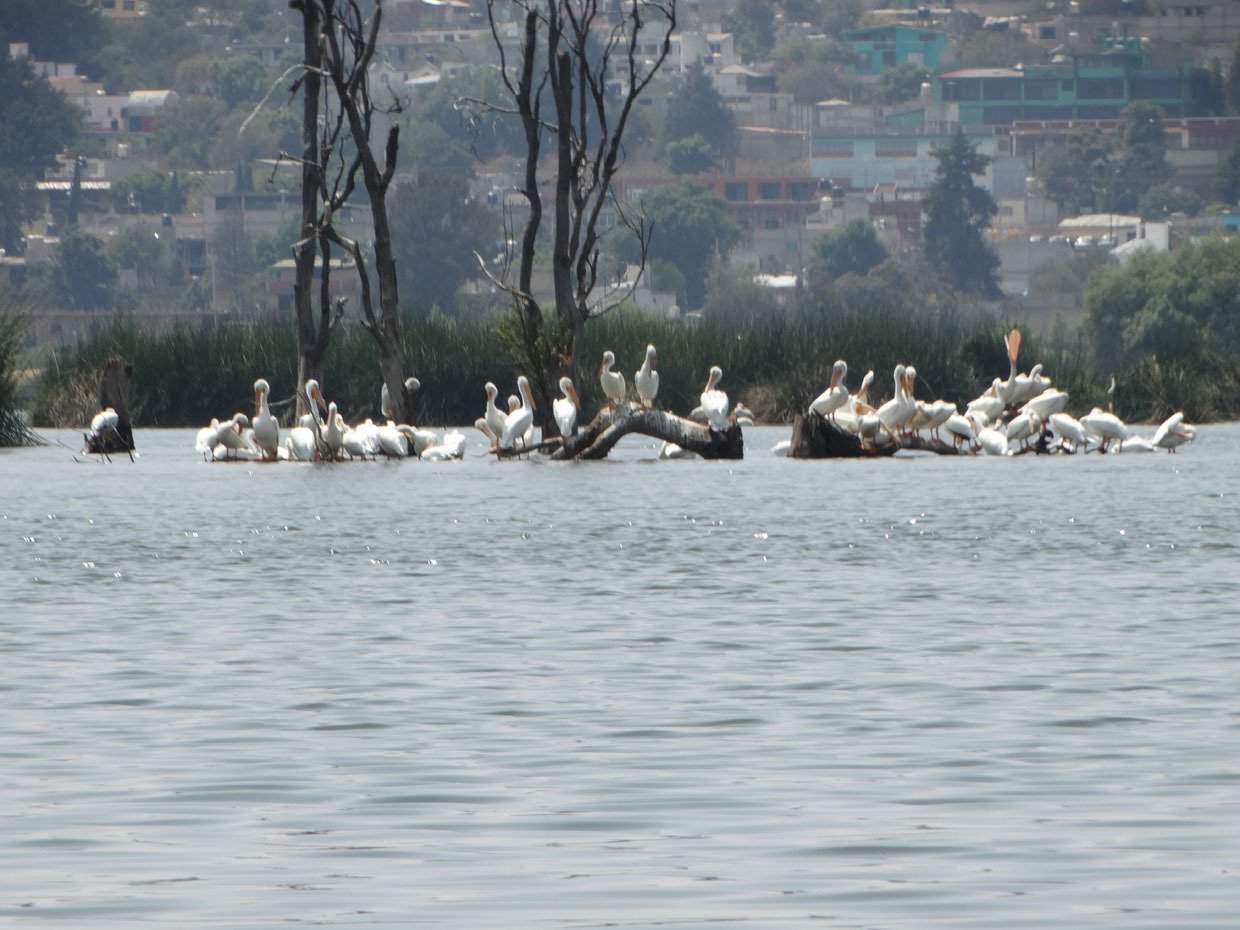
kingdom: Animalia
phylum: Chordata
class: Aves
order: Pelecaniformes
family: Pelecanidae
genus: Pelecanus
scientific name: Pelecanus erythrorhynchos
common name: American white pelican
